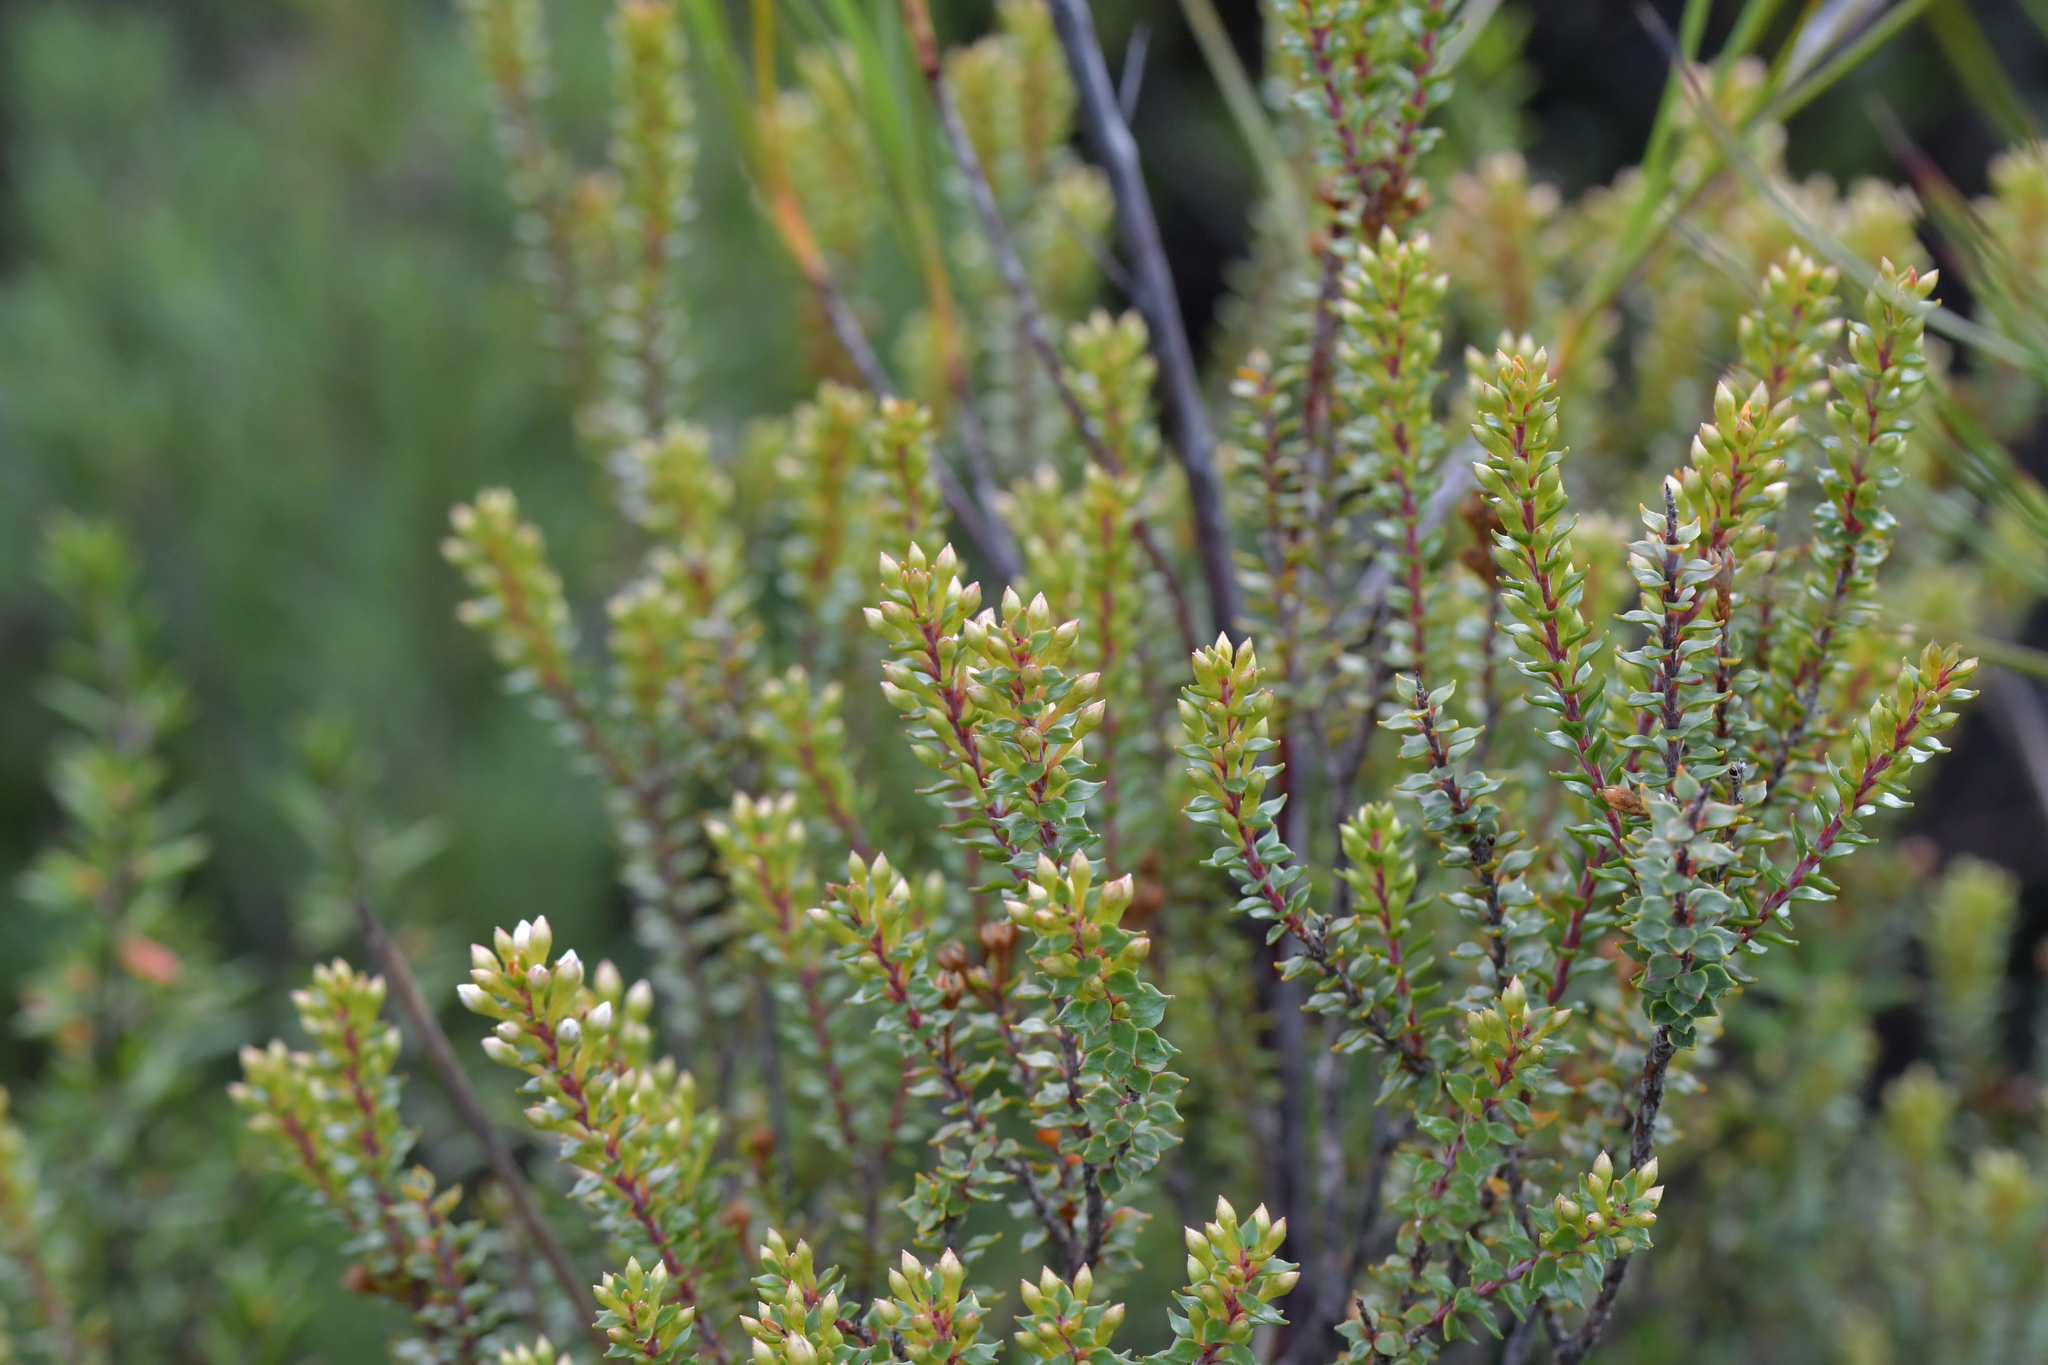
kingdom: Plantae
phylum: Tracheophyta
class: Magnoliopsida
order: Ericales
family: Ericaceae
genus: Epacris
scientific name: Epacris pauciflora
